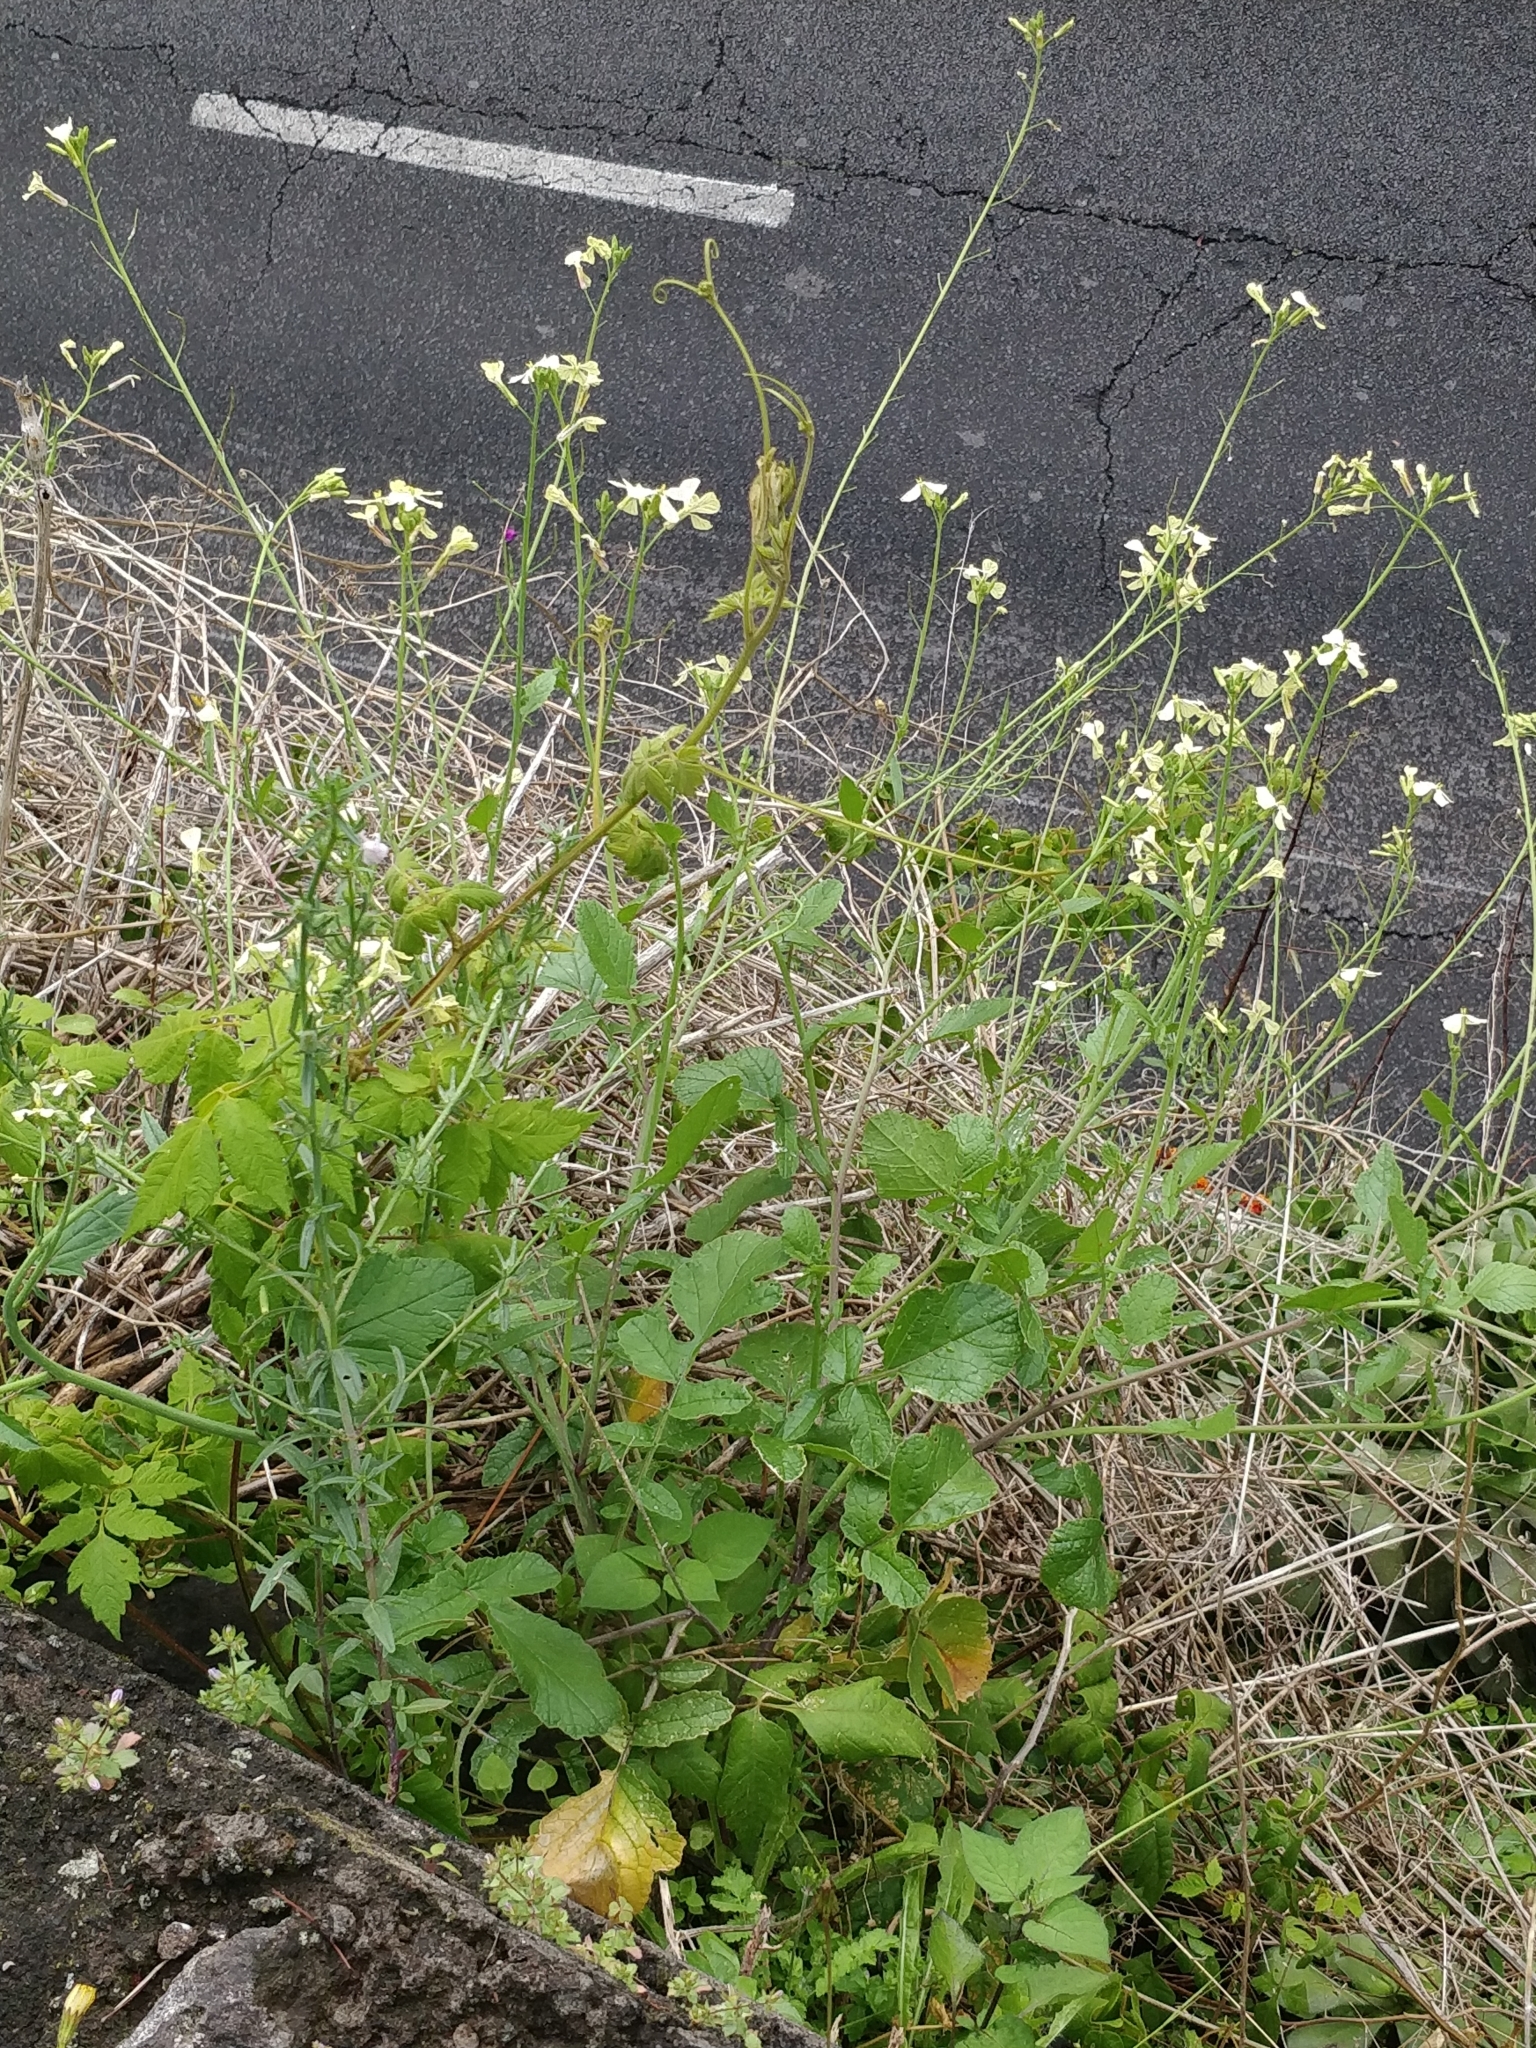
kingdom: Plantae
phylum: Tracheophyta
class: Magnoliopsida
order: Brassicales
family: Brassicaceae
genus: Raphanus
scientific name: Raphanus raphanistrum
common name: Wild radish
